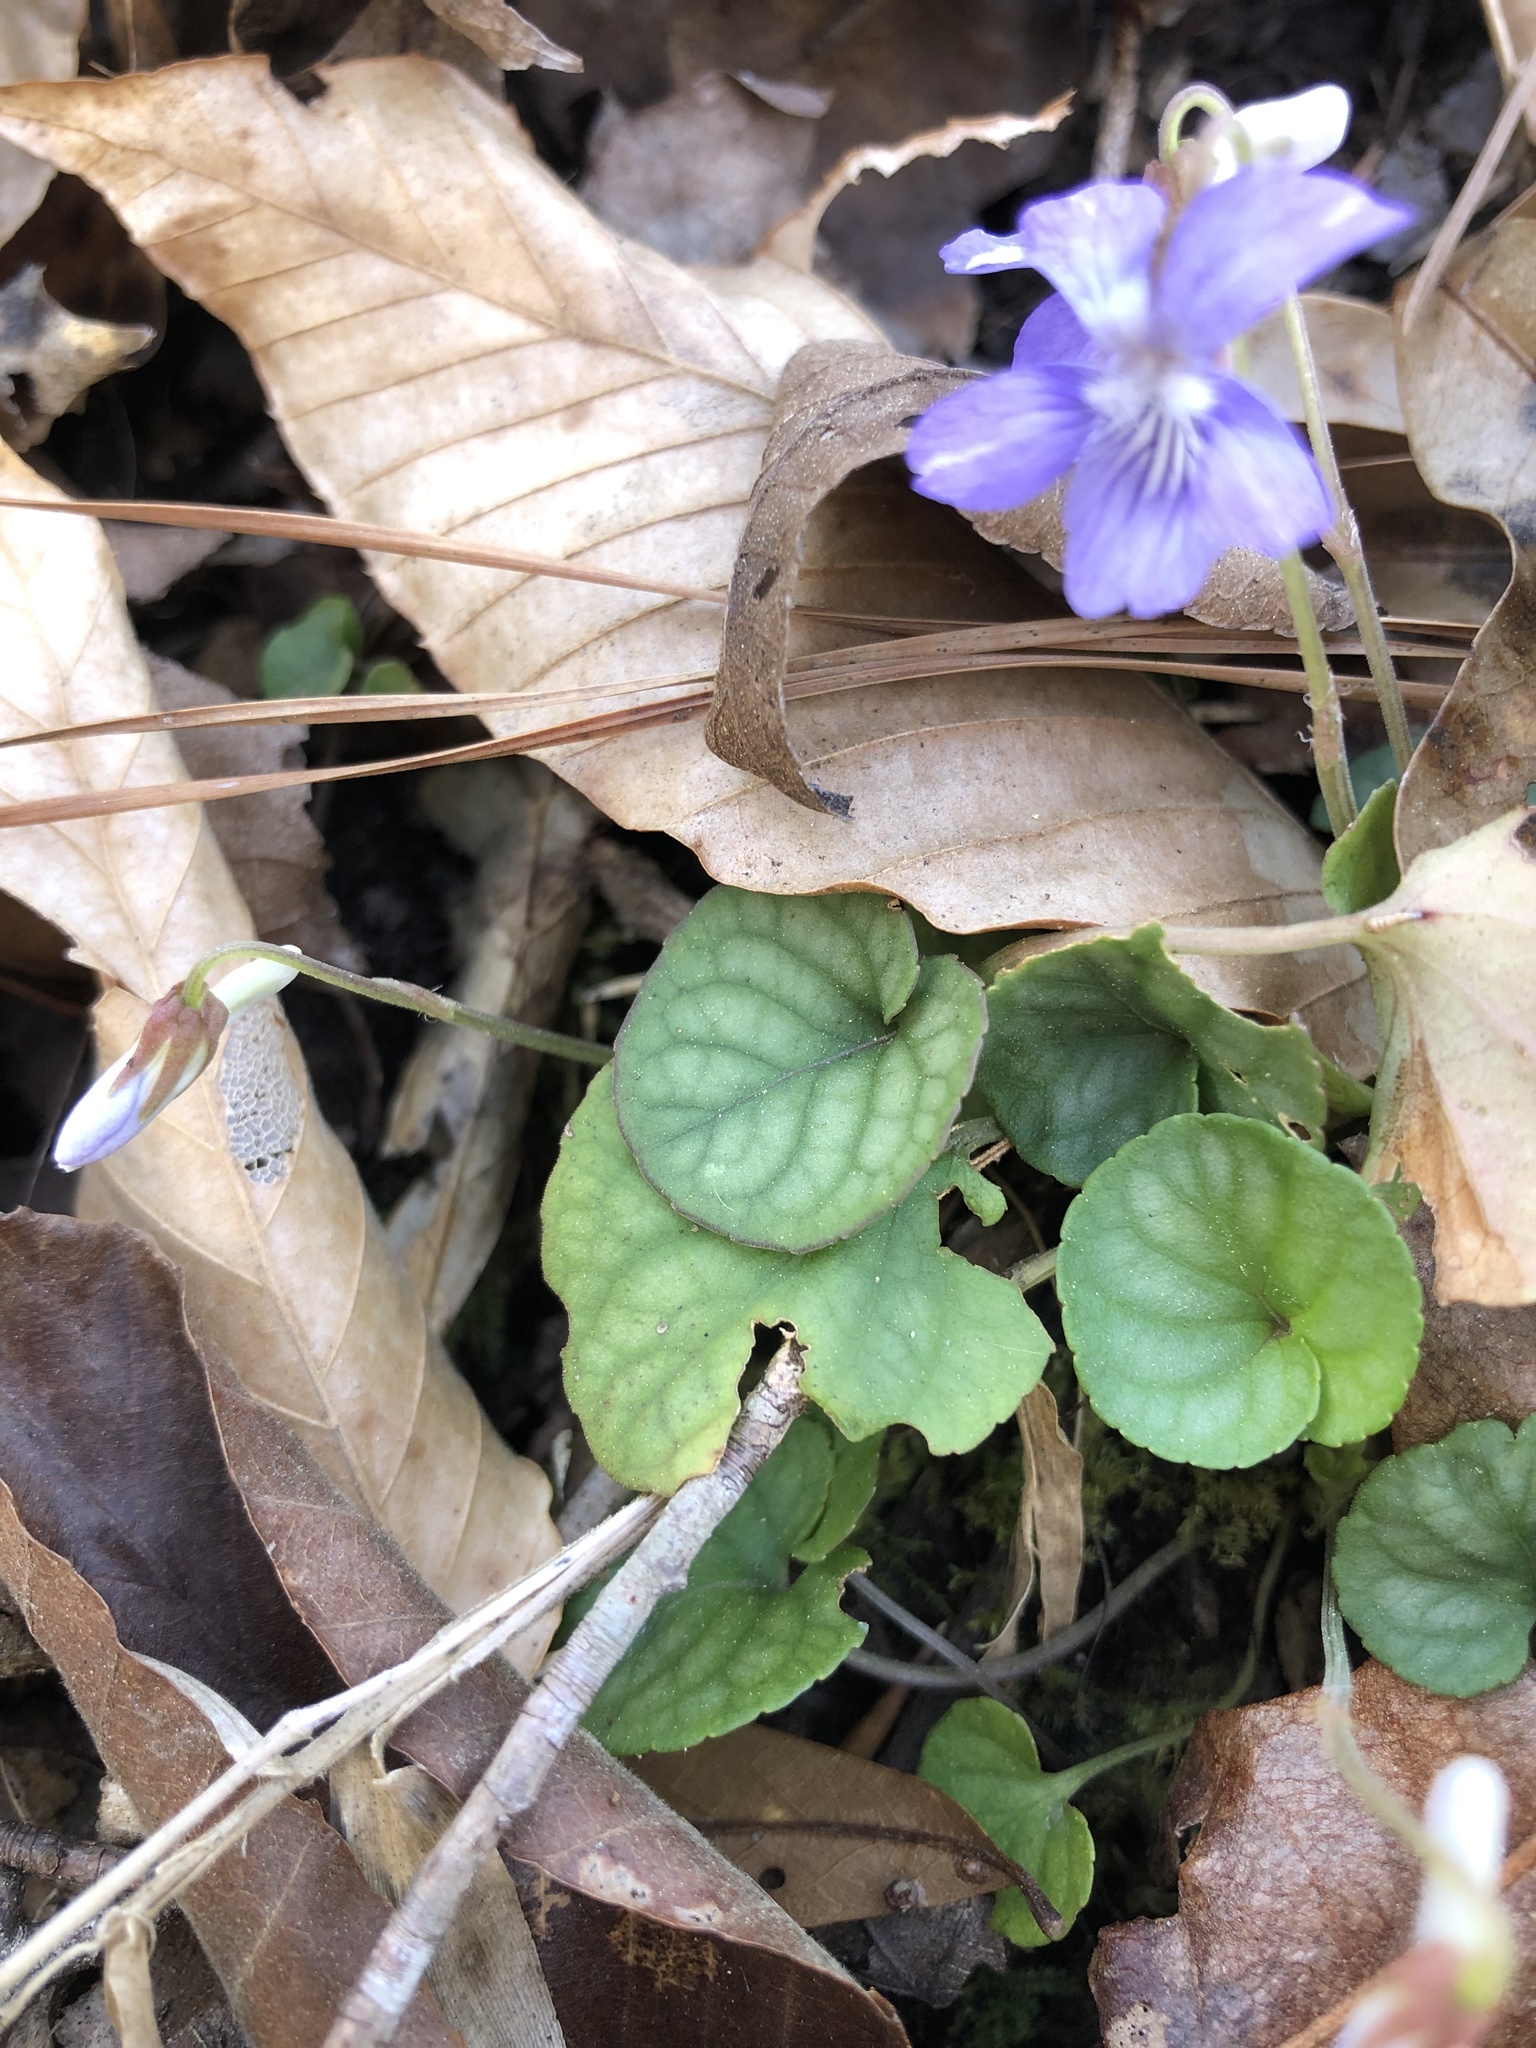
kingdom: Plantae
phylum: Tracheophyta
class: Magnoliopsida
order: Malpighiales
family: Violaceae
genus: Viola
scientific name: Viola walteri
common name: Prostrate southern violet
